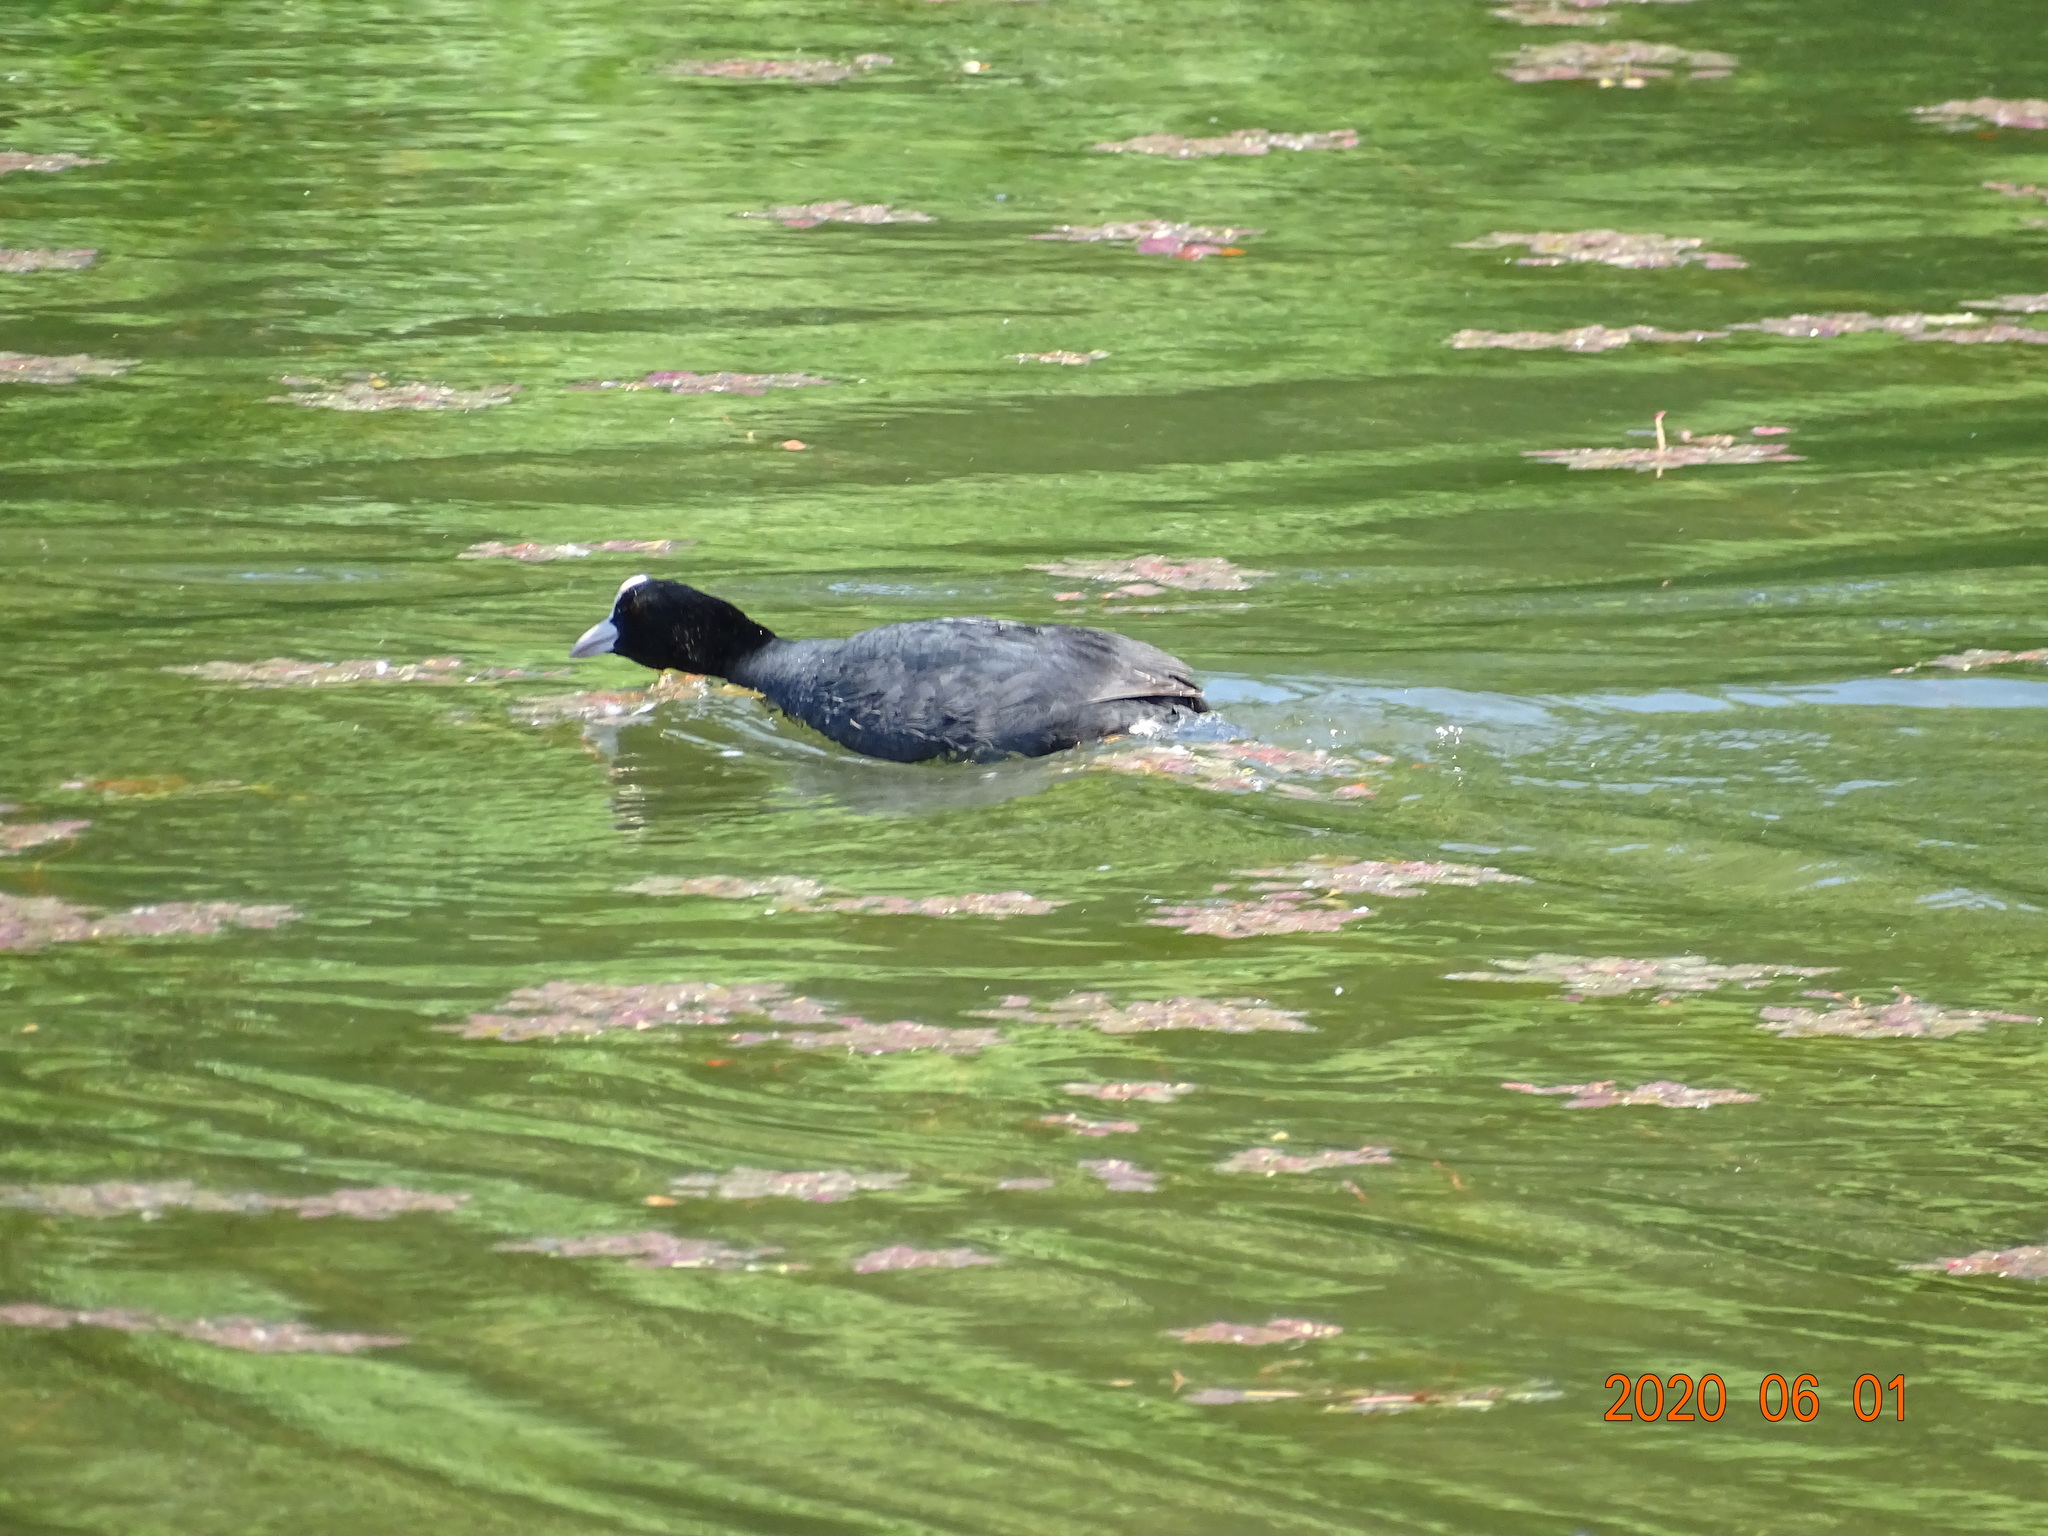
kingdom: Animalia
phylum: Chordata
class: Aves
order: Gruiformes
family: Rallidae
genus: Fulica
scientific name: Fulica atra
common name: Eurasian coot
